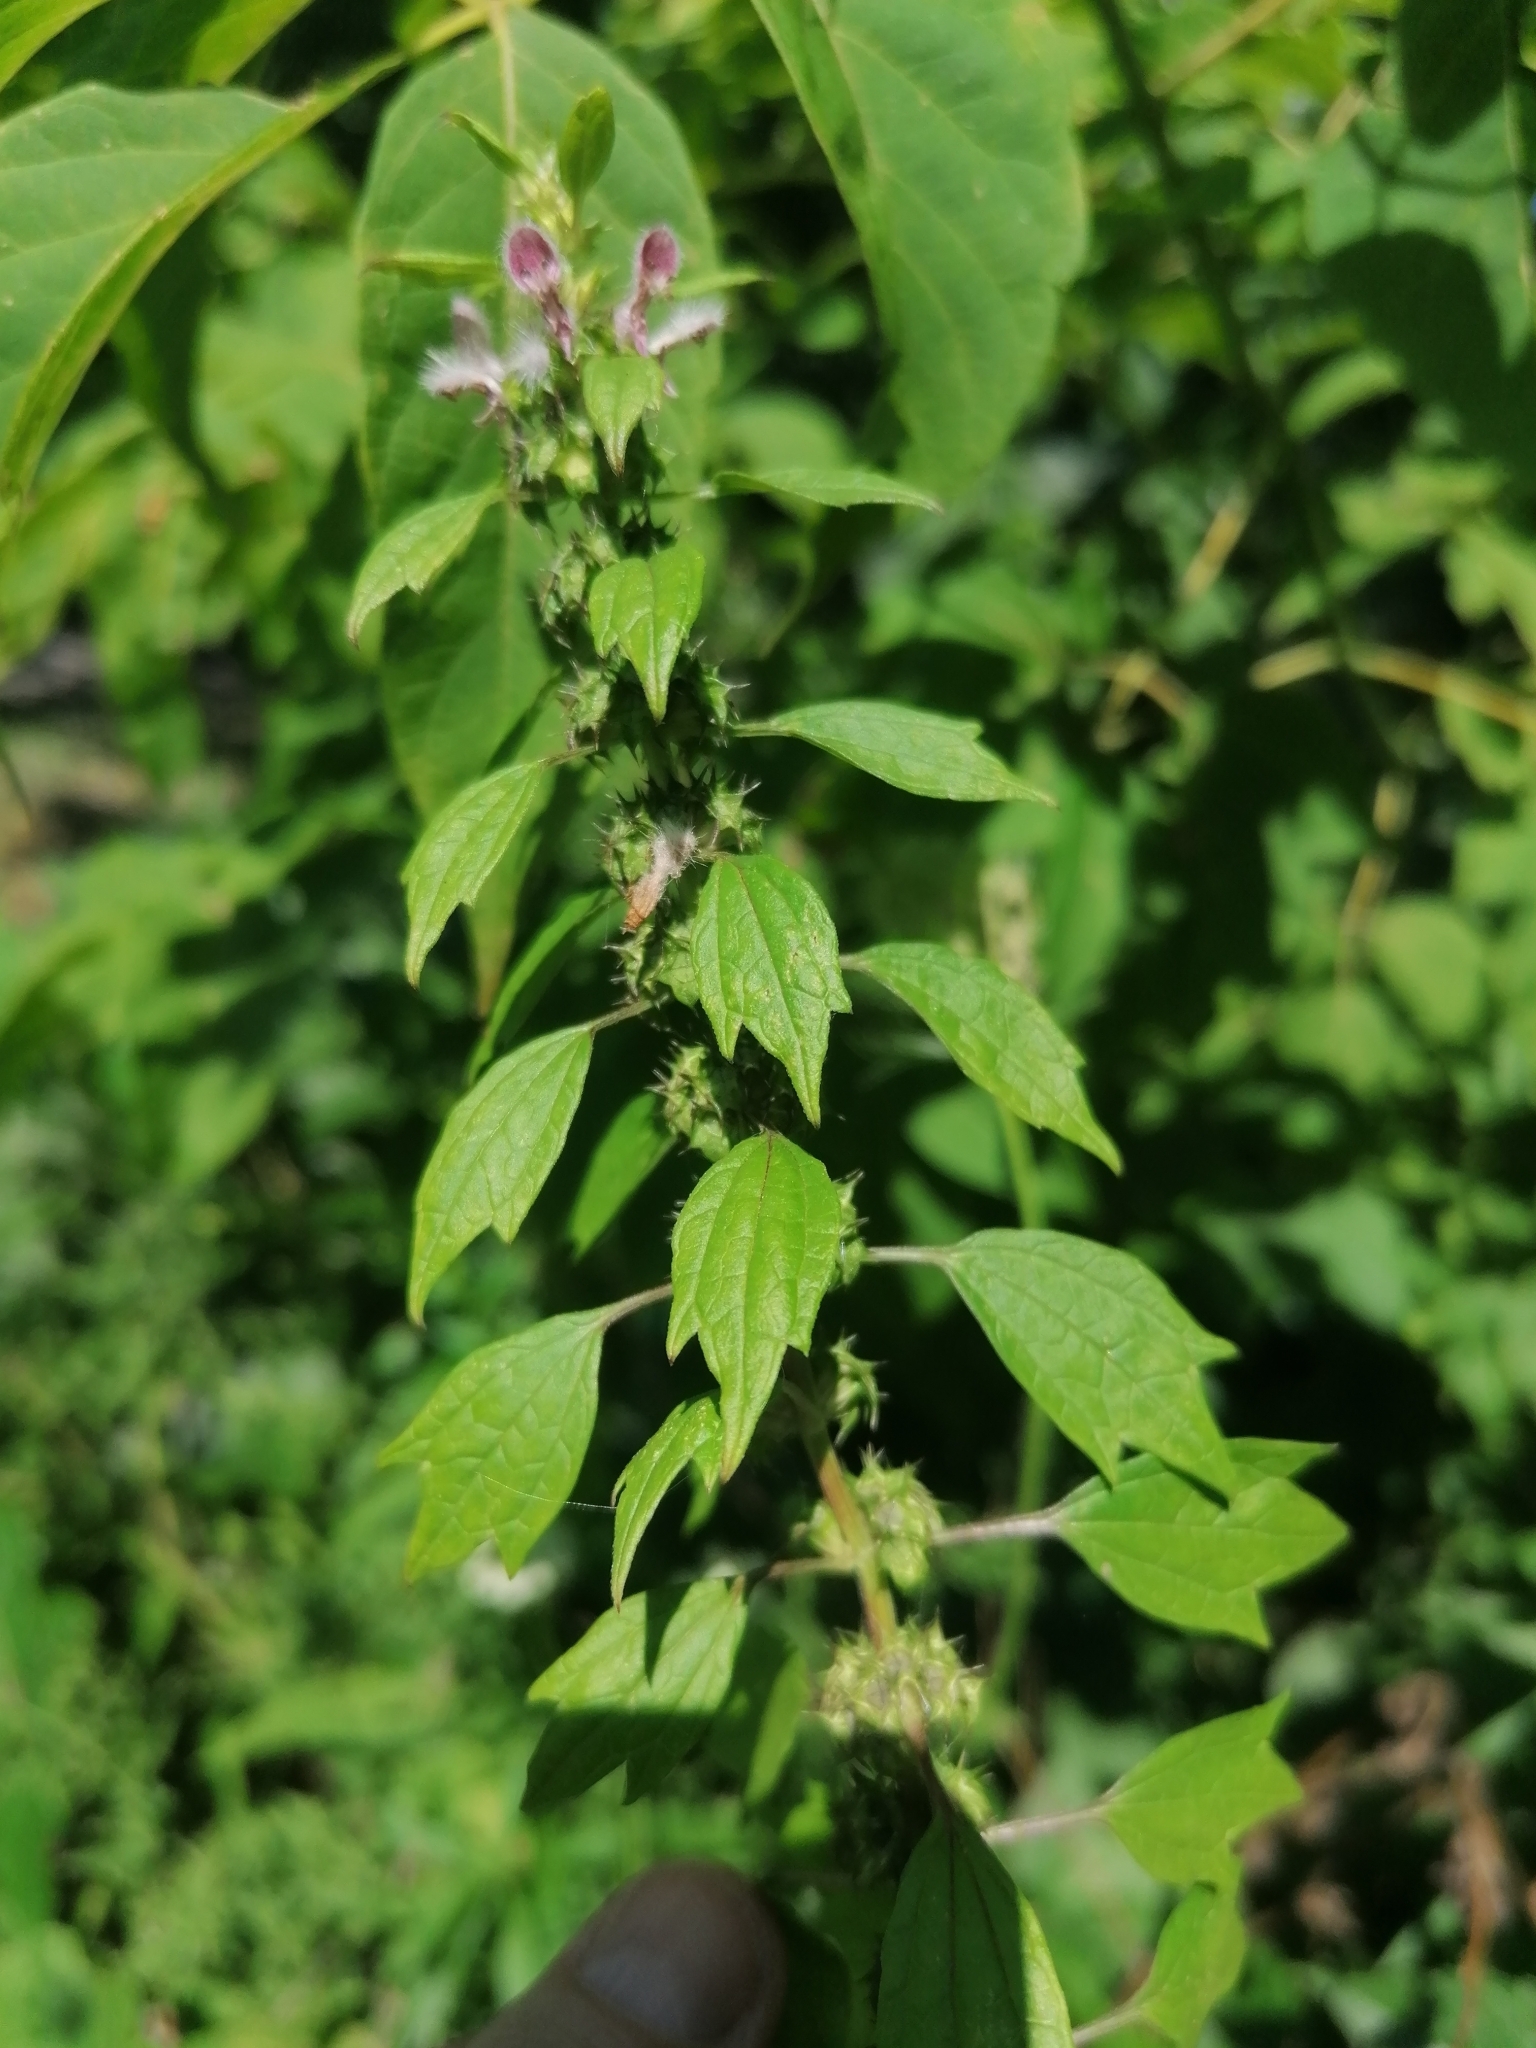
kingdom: Plantae
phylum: Tracheophyta
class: Magnoliopsida
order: Lamiales
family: Lamiaceae
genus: Leonurus
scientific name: Leonurus cardiaca
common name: Motherwort
